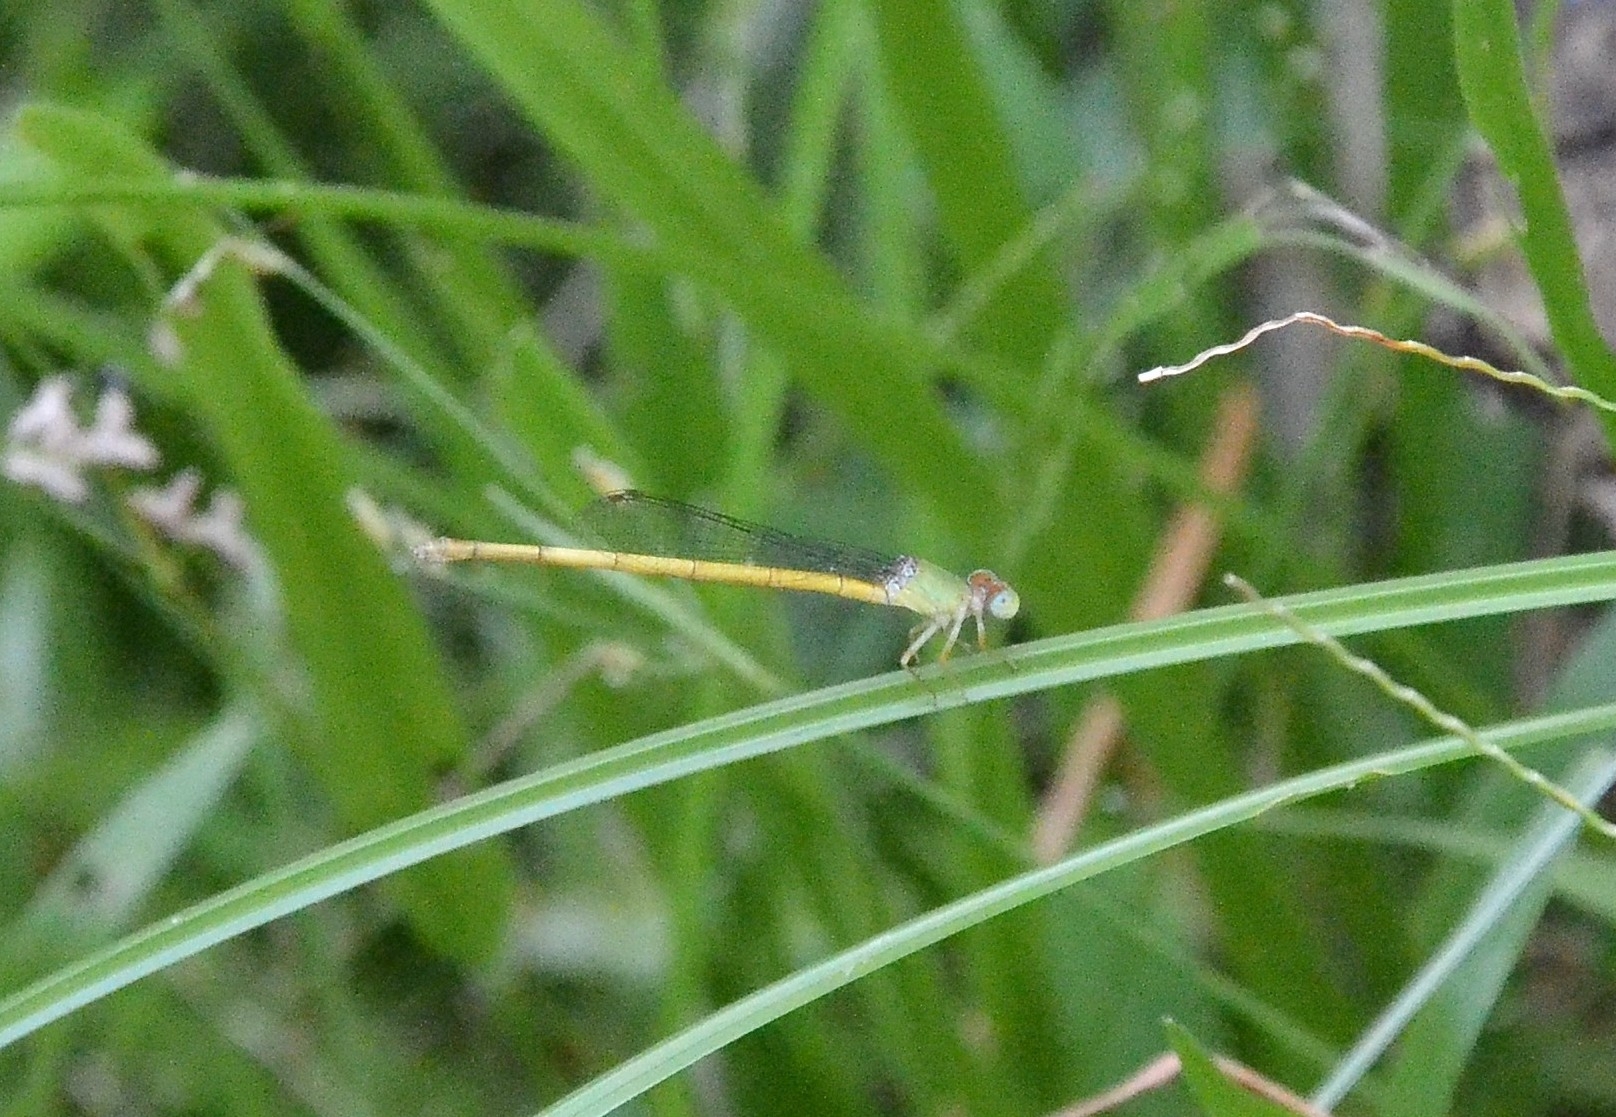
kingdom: Animalia
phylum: Arthropoda
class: Insecta
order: Odonata
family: Coenagrionidae
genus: Ceriagrion
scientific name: Ceriagrion coromandelianum
